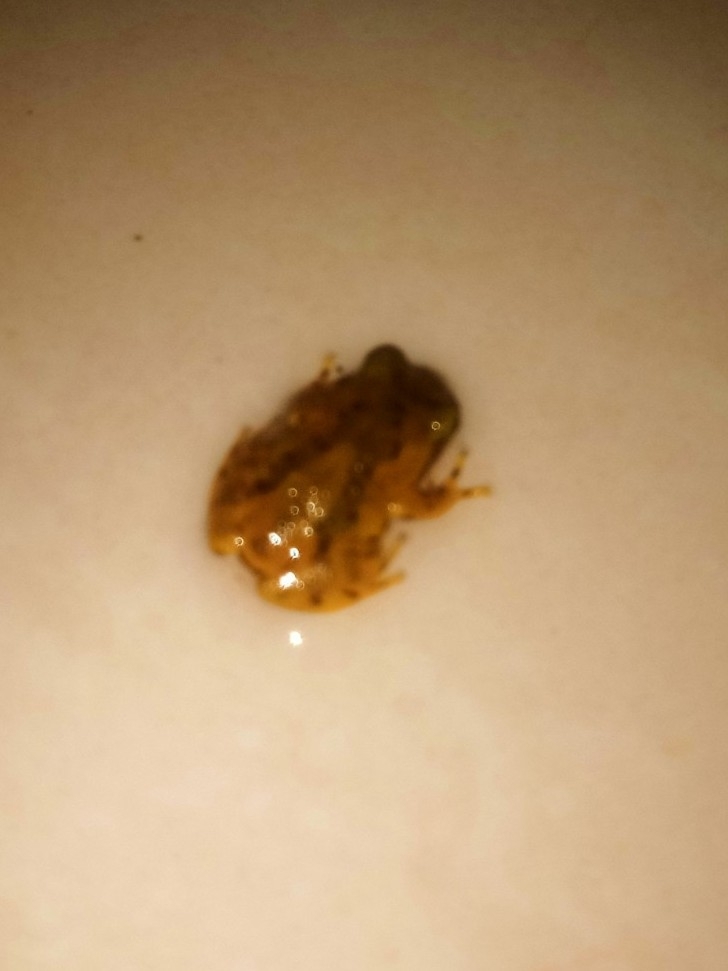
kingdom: Animalia
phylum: Chordata
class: Amphibia
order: Anura
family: Rhacophoridae
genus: Raorchestes
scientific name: Raorchestes dubois
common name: Koadaikanal bush frog
